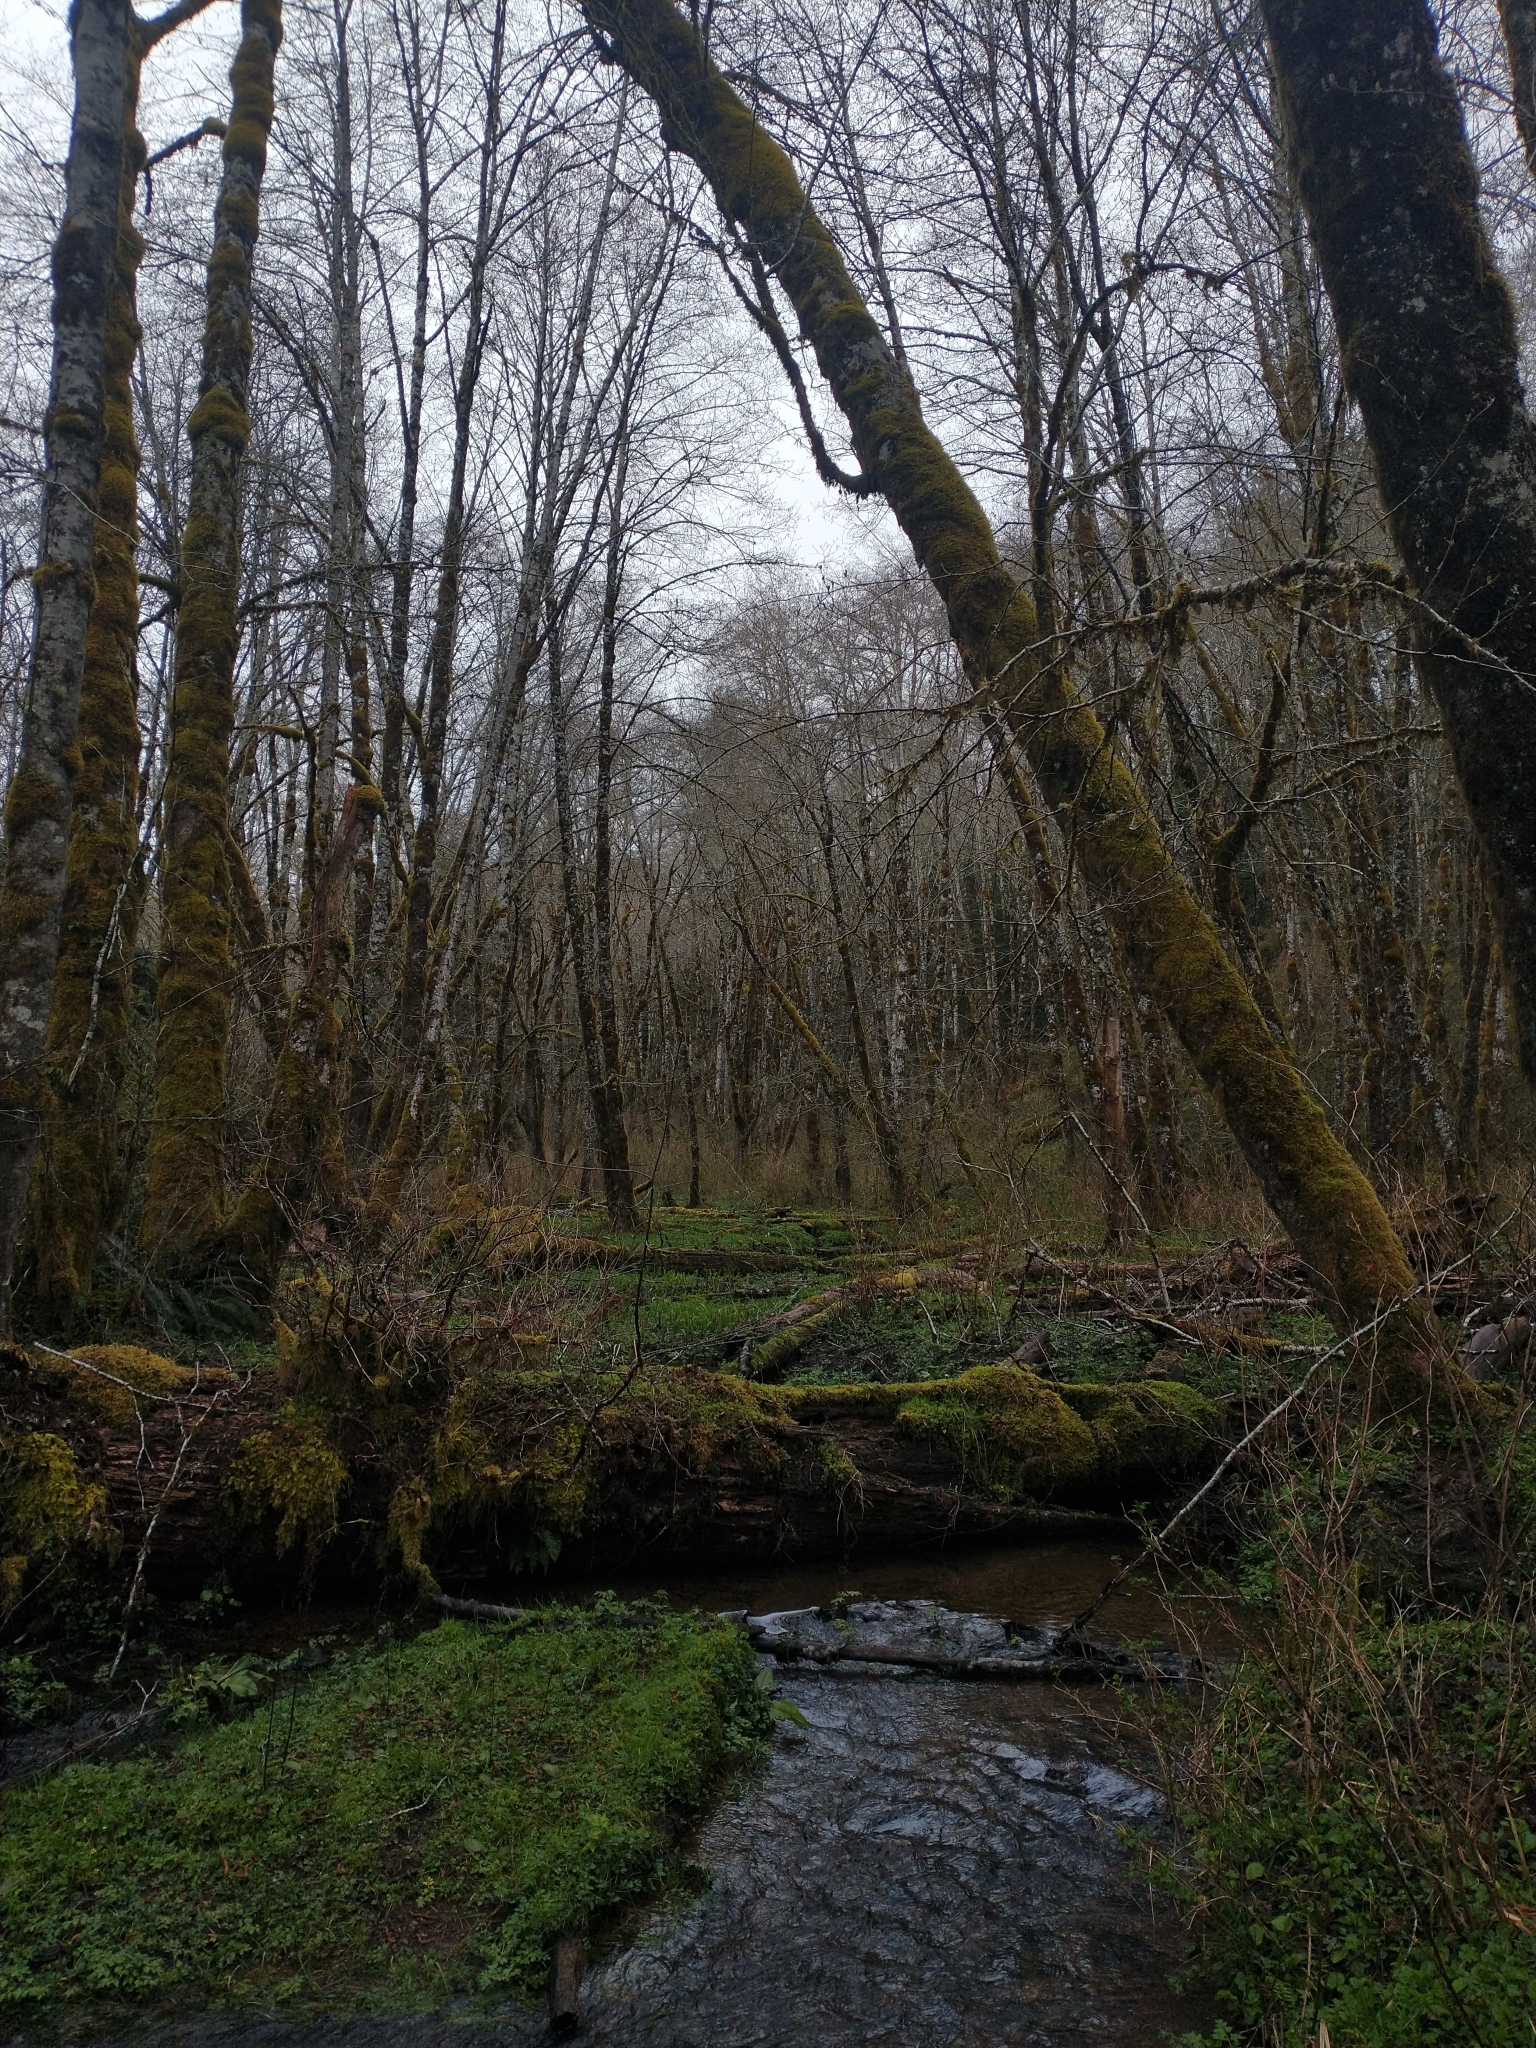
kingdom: Plantae
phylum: Tracheophyta
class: Magnoliopsida
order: Rosales
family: Rosaceae
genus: Rubus
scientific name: Rubus spectabilis
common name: Salmonberry
